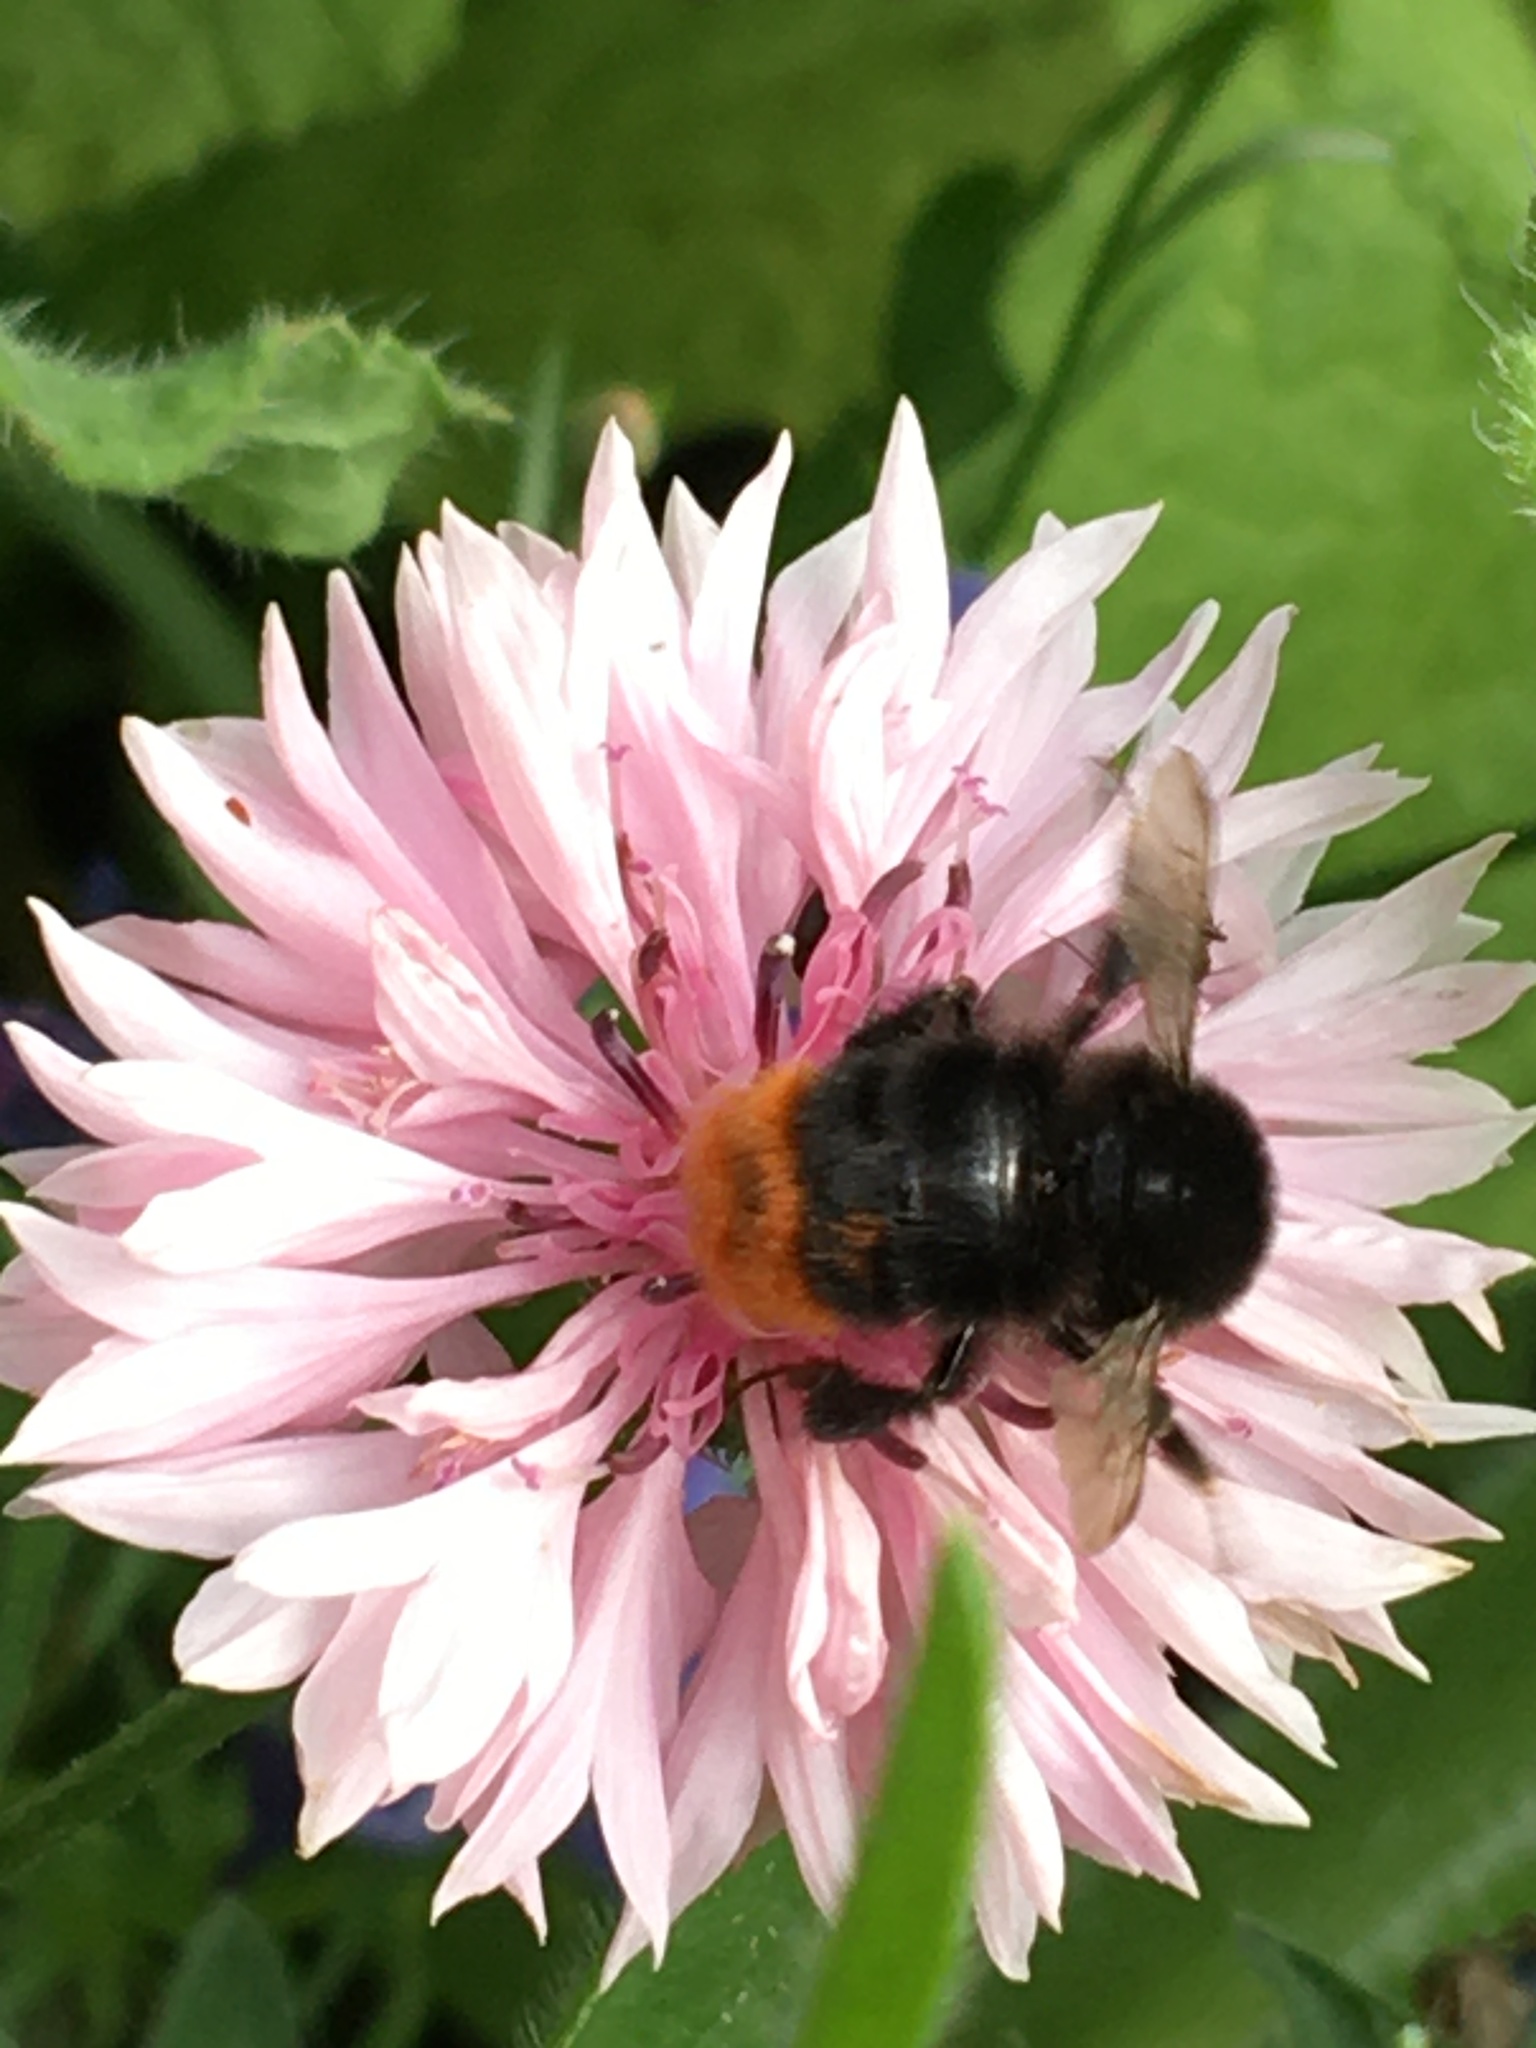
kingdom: Animalia
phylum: Arthropoda
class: Insecta
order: Hymenoptera
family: Apidae
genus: Bombus
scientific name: Bombus lapidarius
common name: Large red-tailed humble-bee
